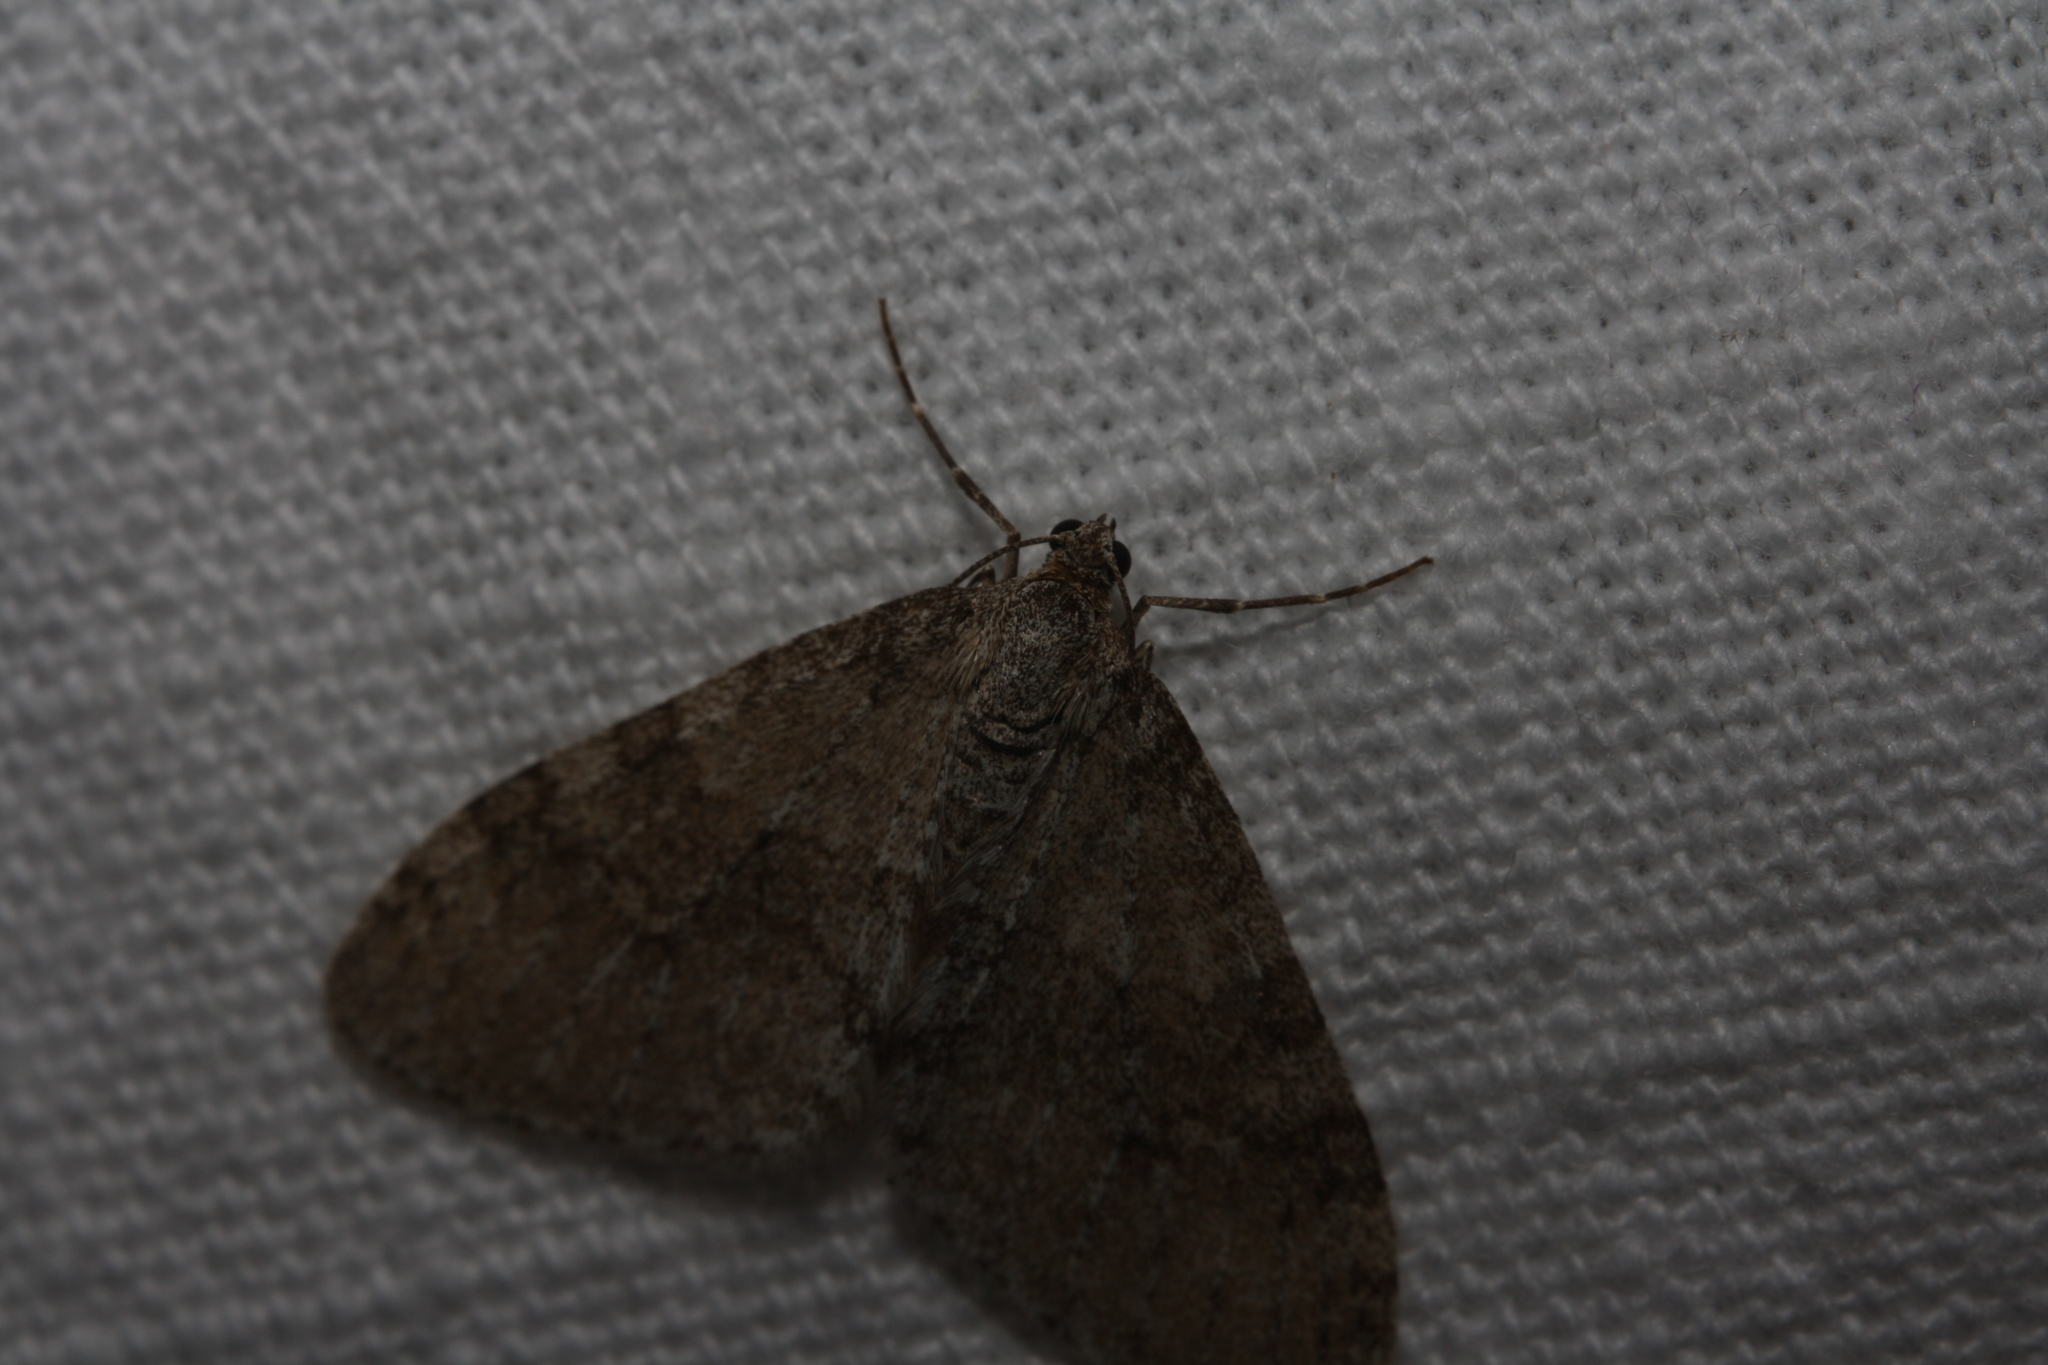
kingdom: Animalia
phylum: Arthropoda
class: Insecta
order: Lepidoptera
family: Geometridae
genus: Trichopteryx
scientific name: Trichopteryx carpinata
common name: Early tooth-striped
